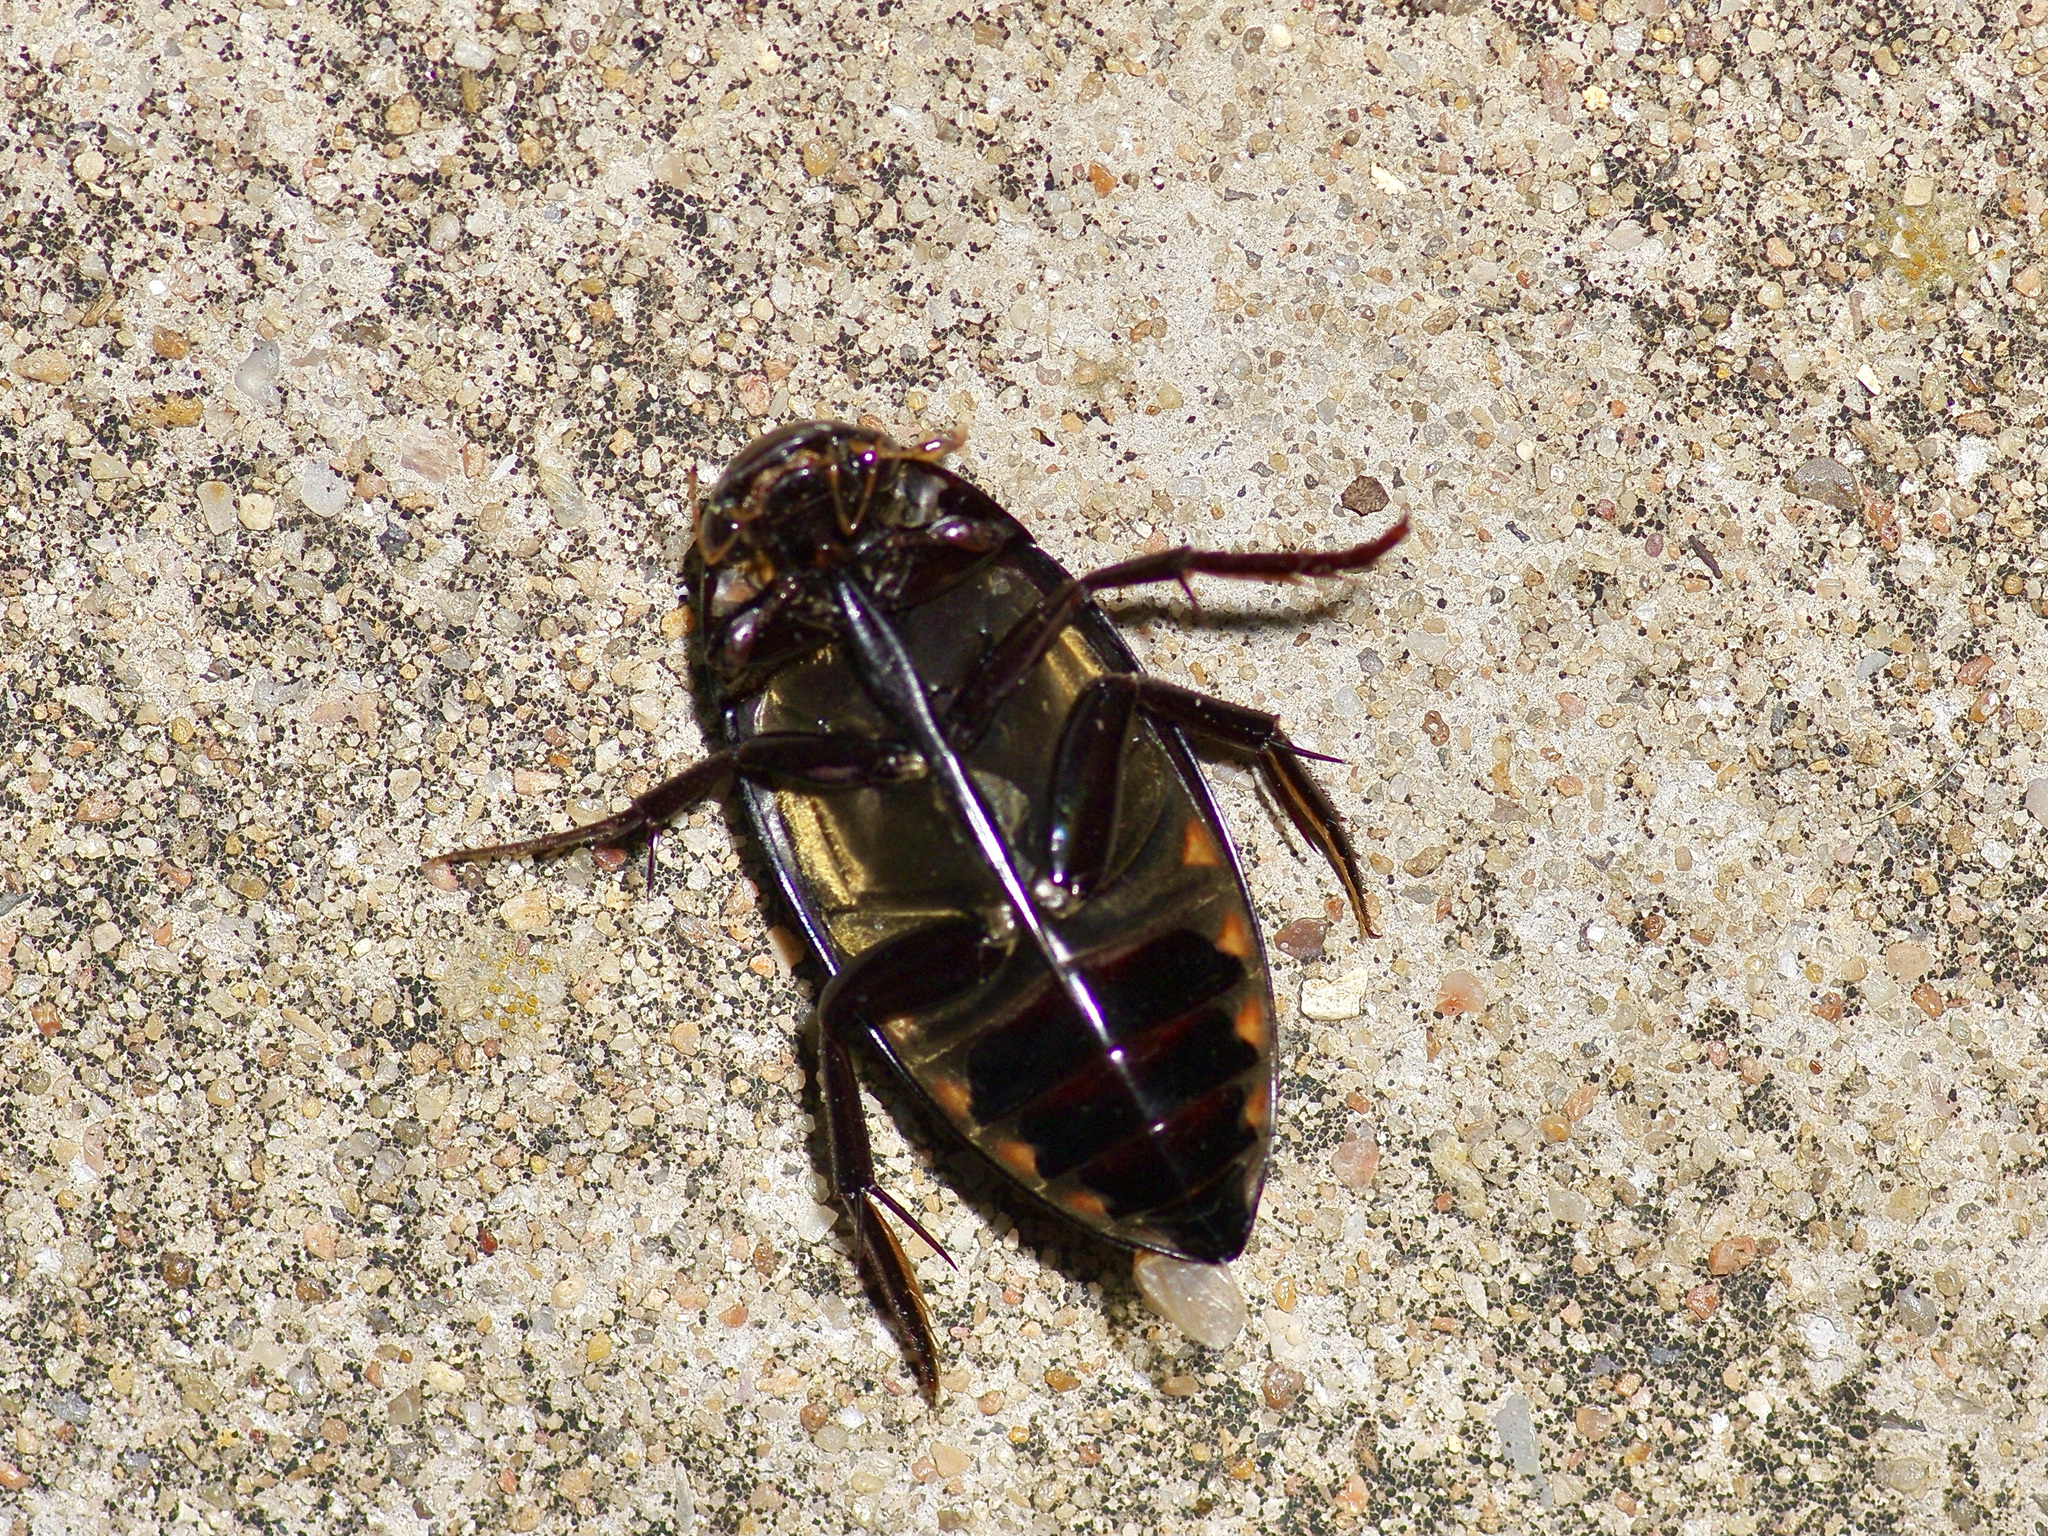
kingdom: Animalia
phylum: Arthropoda
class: Insecta
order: Coleoptera
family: Hydrophilidae
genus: Hydrophilus
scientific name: Hydrophilus triangularis
